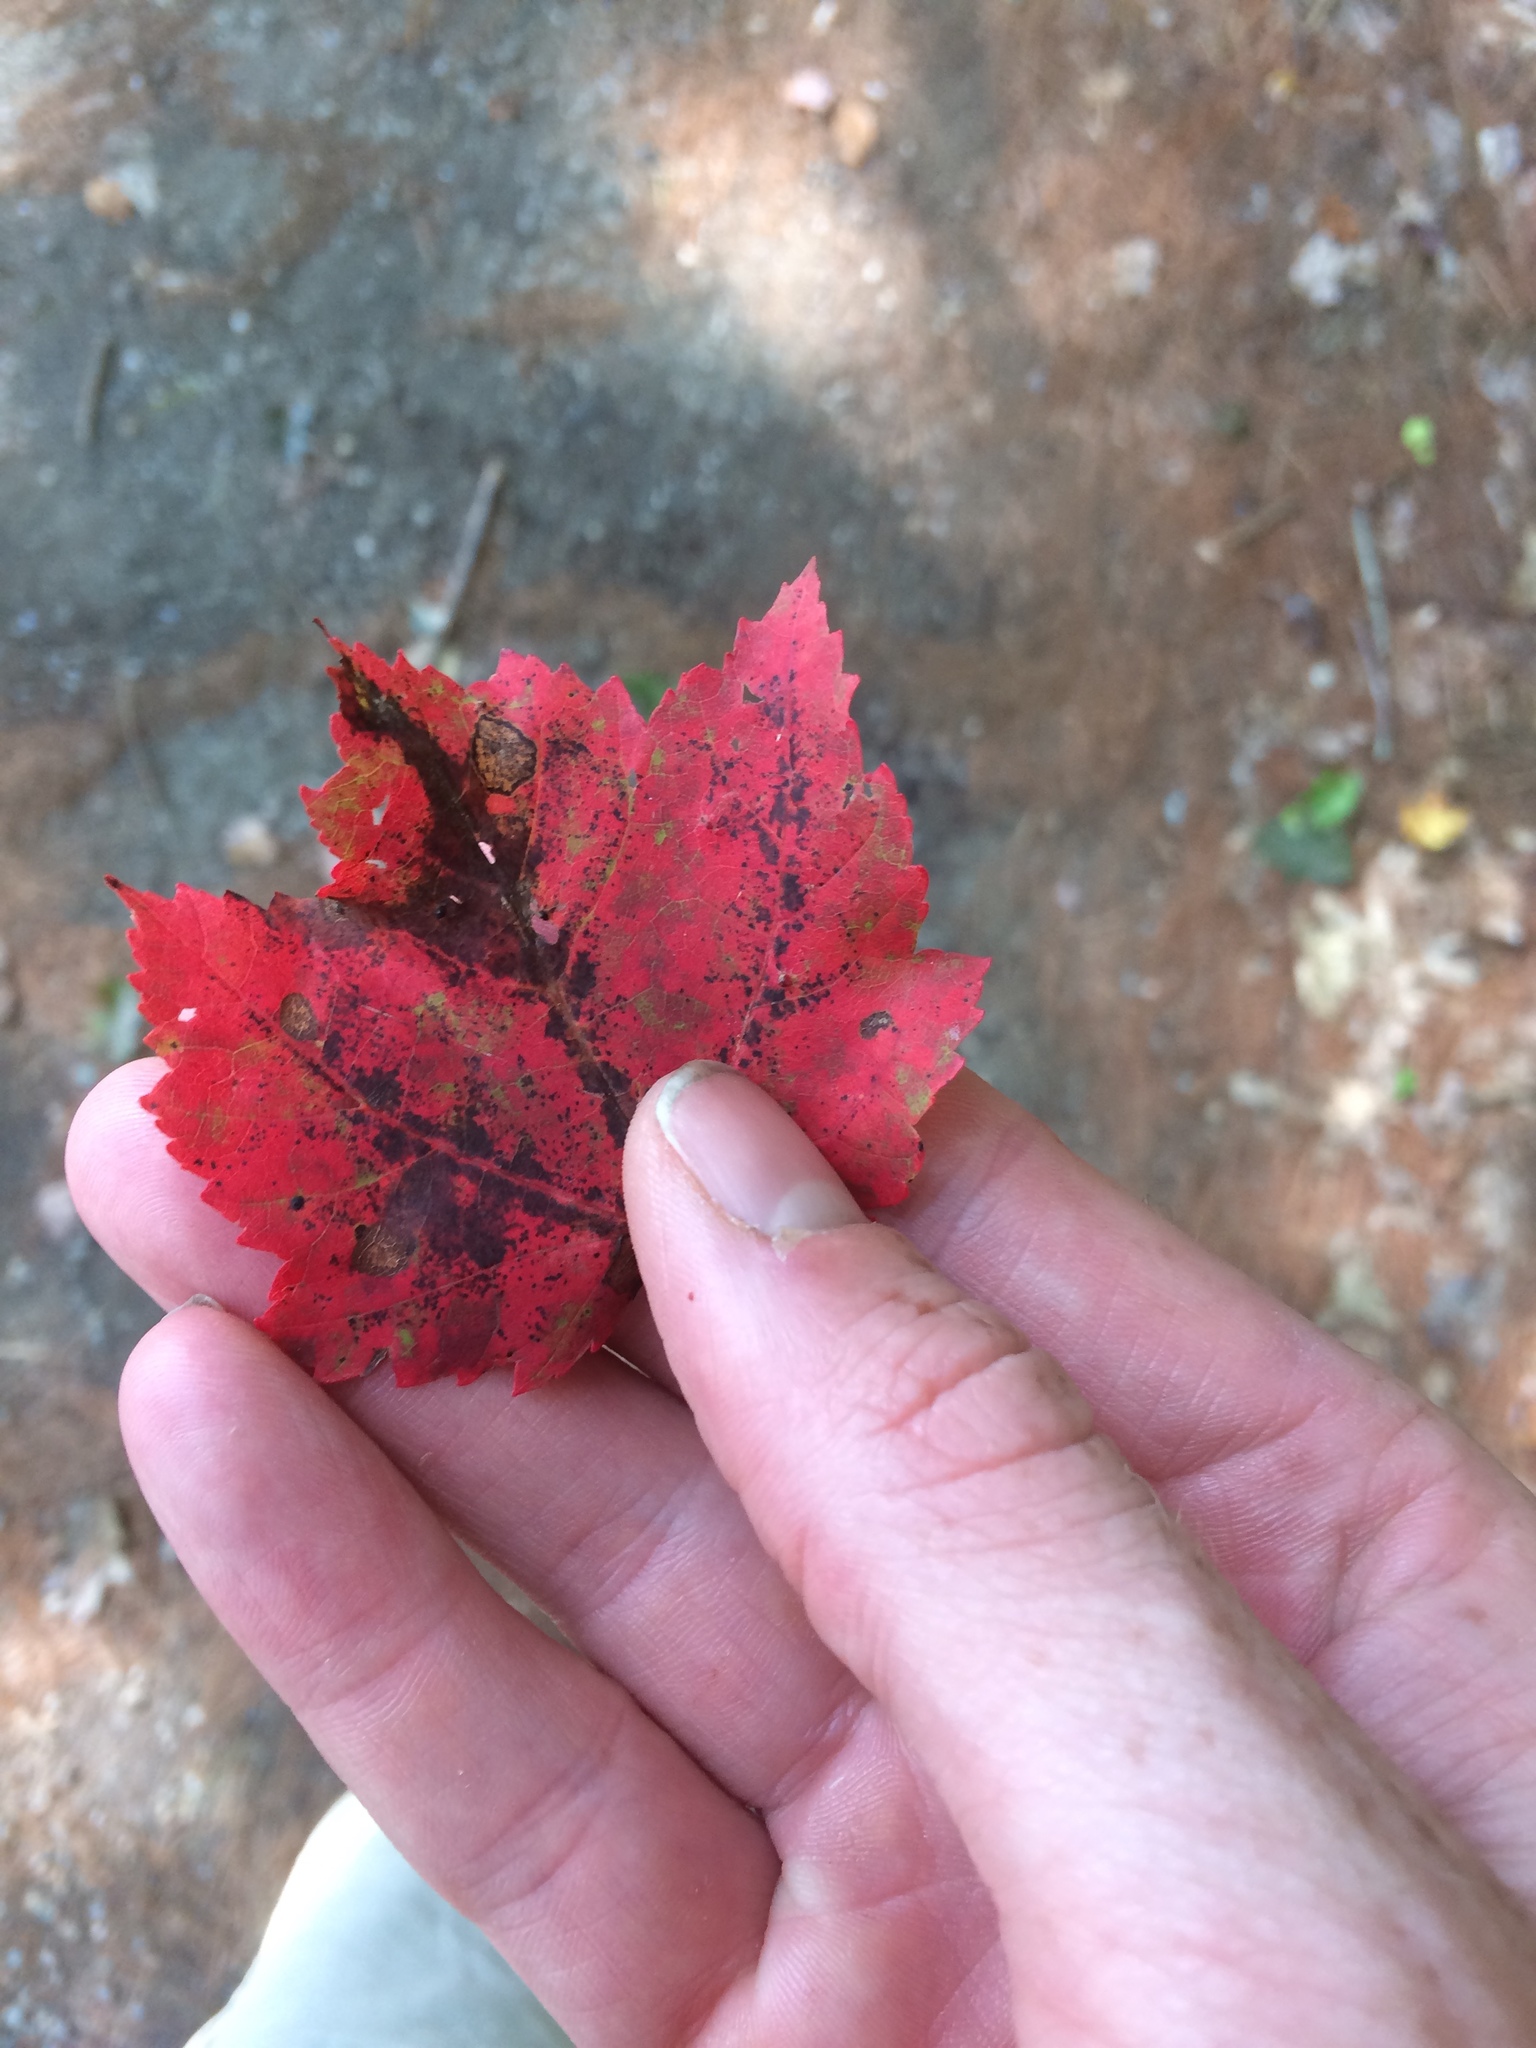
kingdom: Plantae
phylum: Tracheophyta
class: Magnoliopsida
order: Sapindales
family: Sapindaceae
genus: Acer
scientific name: Acer rubrum
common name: Red maple
